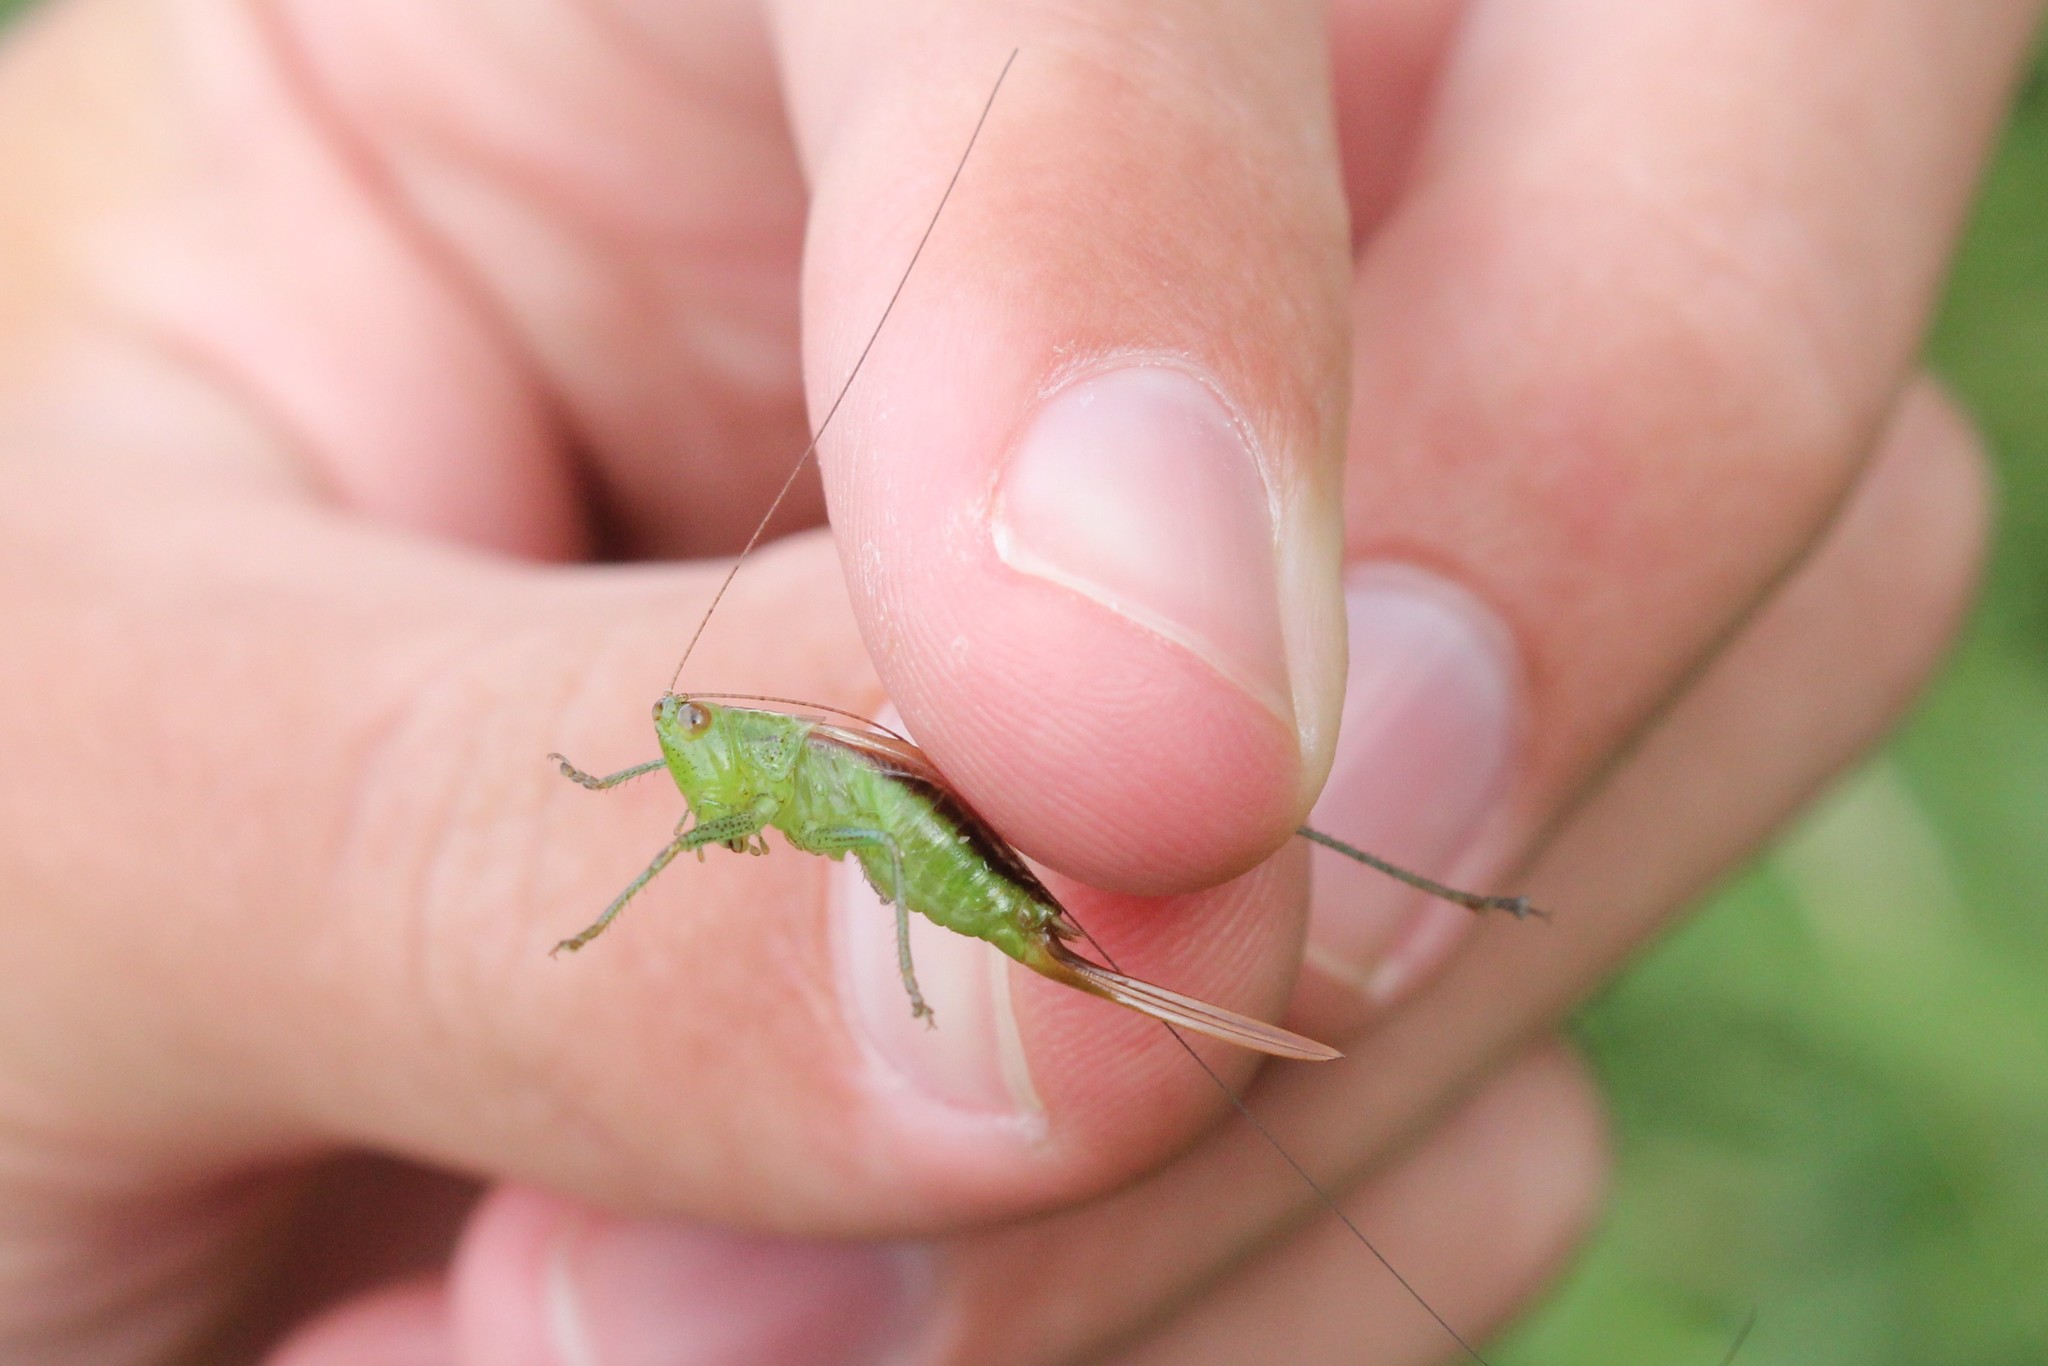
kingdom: Animalia
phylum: Arthropoda
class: Insecta
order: Orthoptera
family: Tettigoniidae
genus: Conocephalus
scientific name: Conocephalus brevipennis
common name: Short-winged meadow katydid
